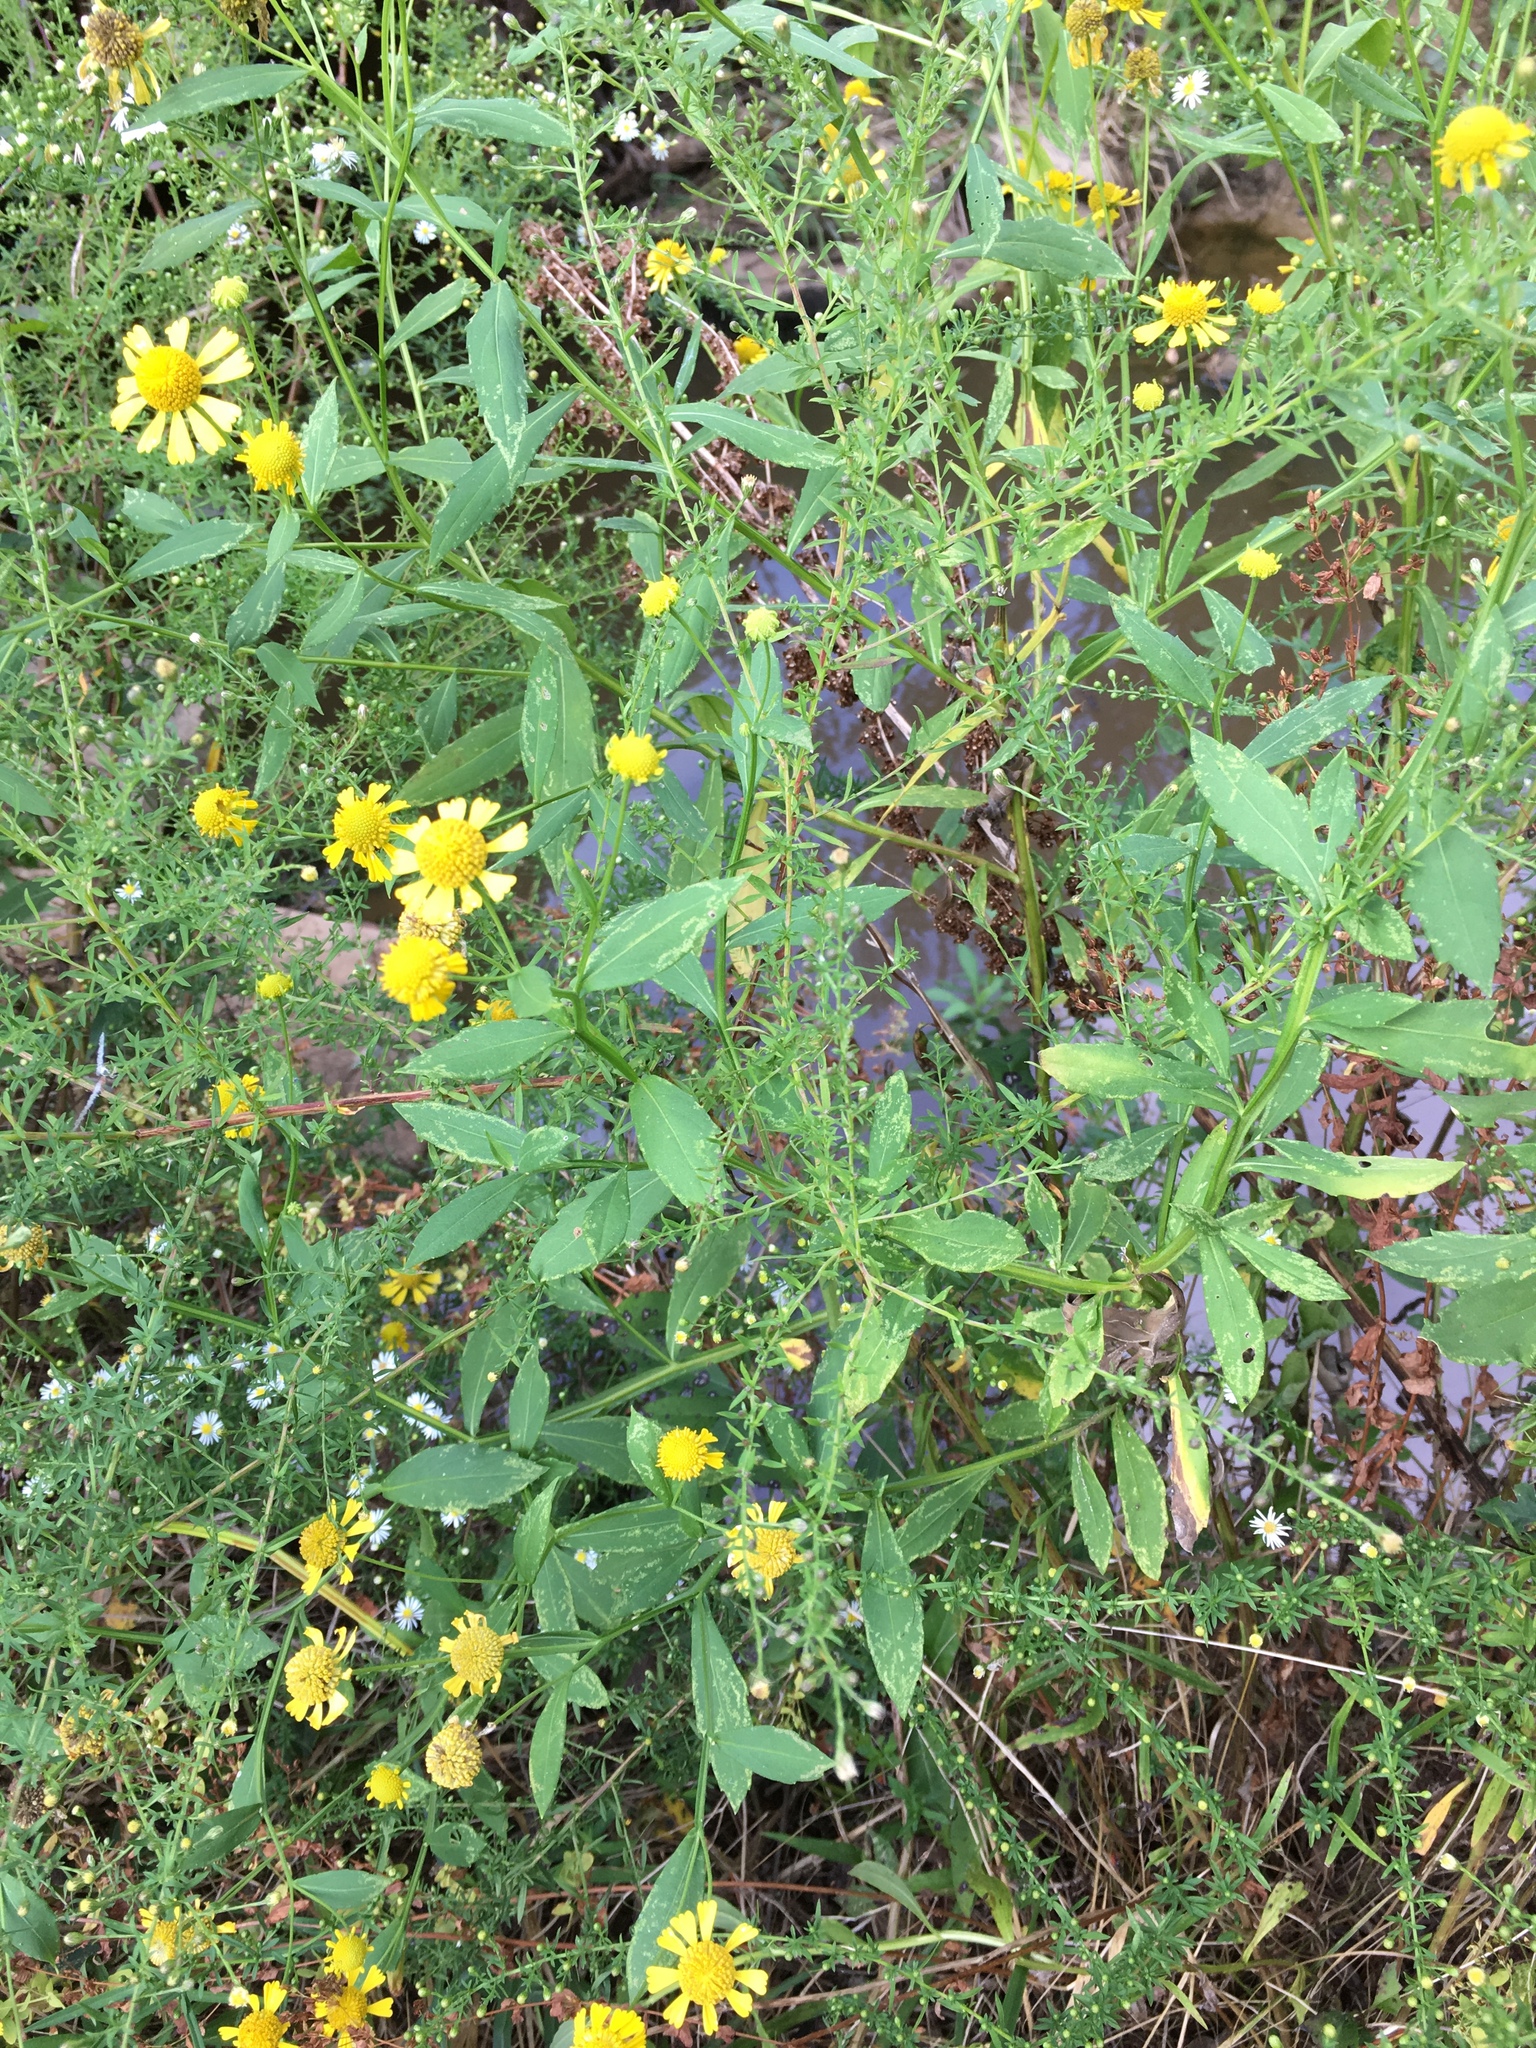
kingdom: Plantae
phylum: Tracheophyta
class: Magnoliopsida
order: Asterales
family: Asteraceae
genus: Helenium
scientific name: Helenium autumnale
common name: Sneezeweed
